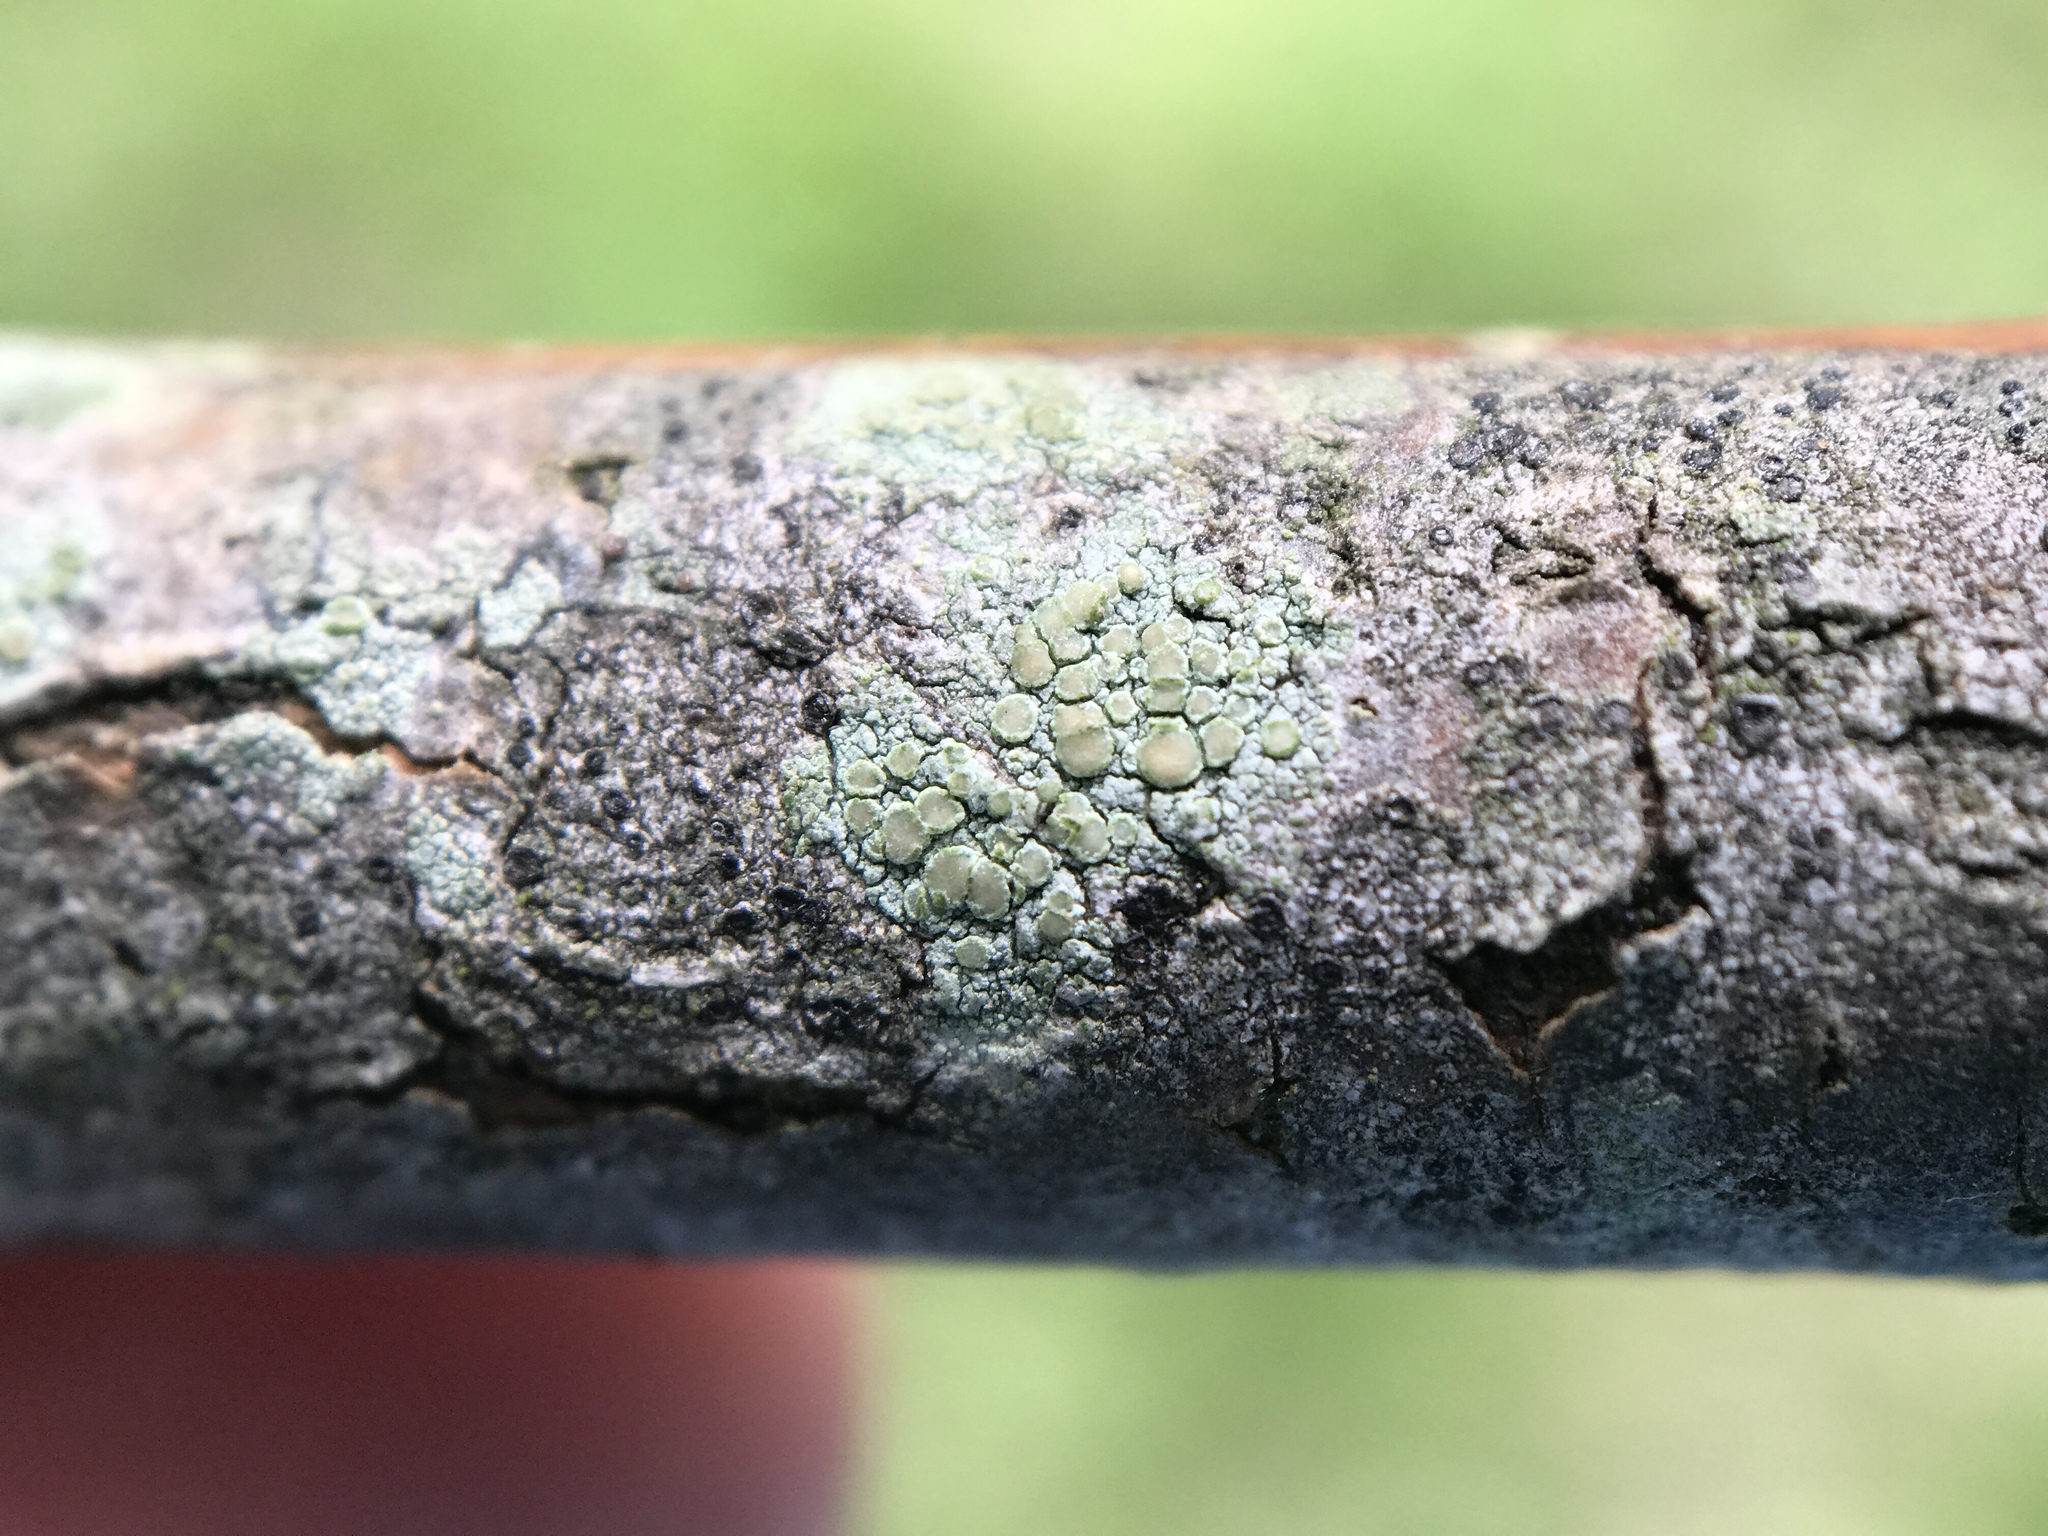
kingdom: Fungi
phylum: Ascomycota
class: Lecanoromycetes
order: Lecanorales
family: Lecanoraceae
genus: Lecanora
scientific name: Lecanora strobilina
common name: Mealy rim-lichen
